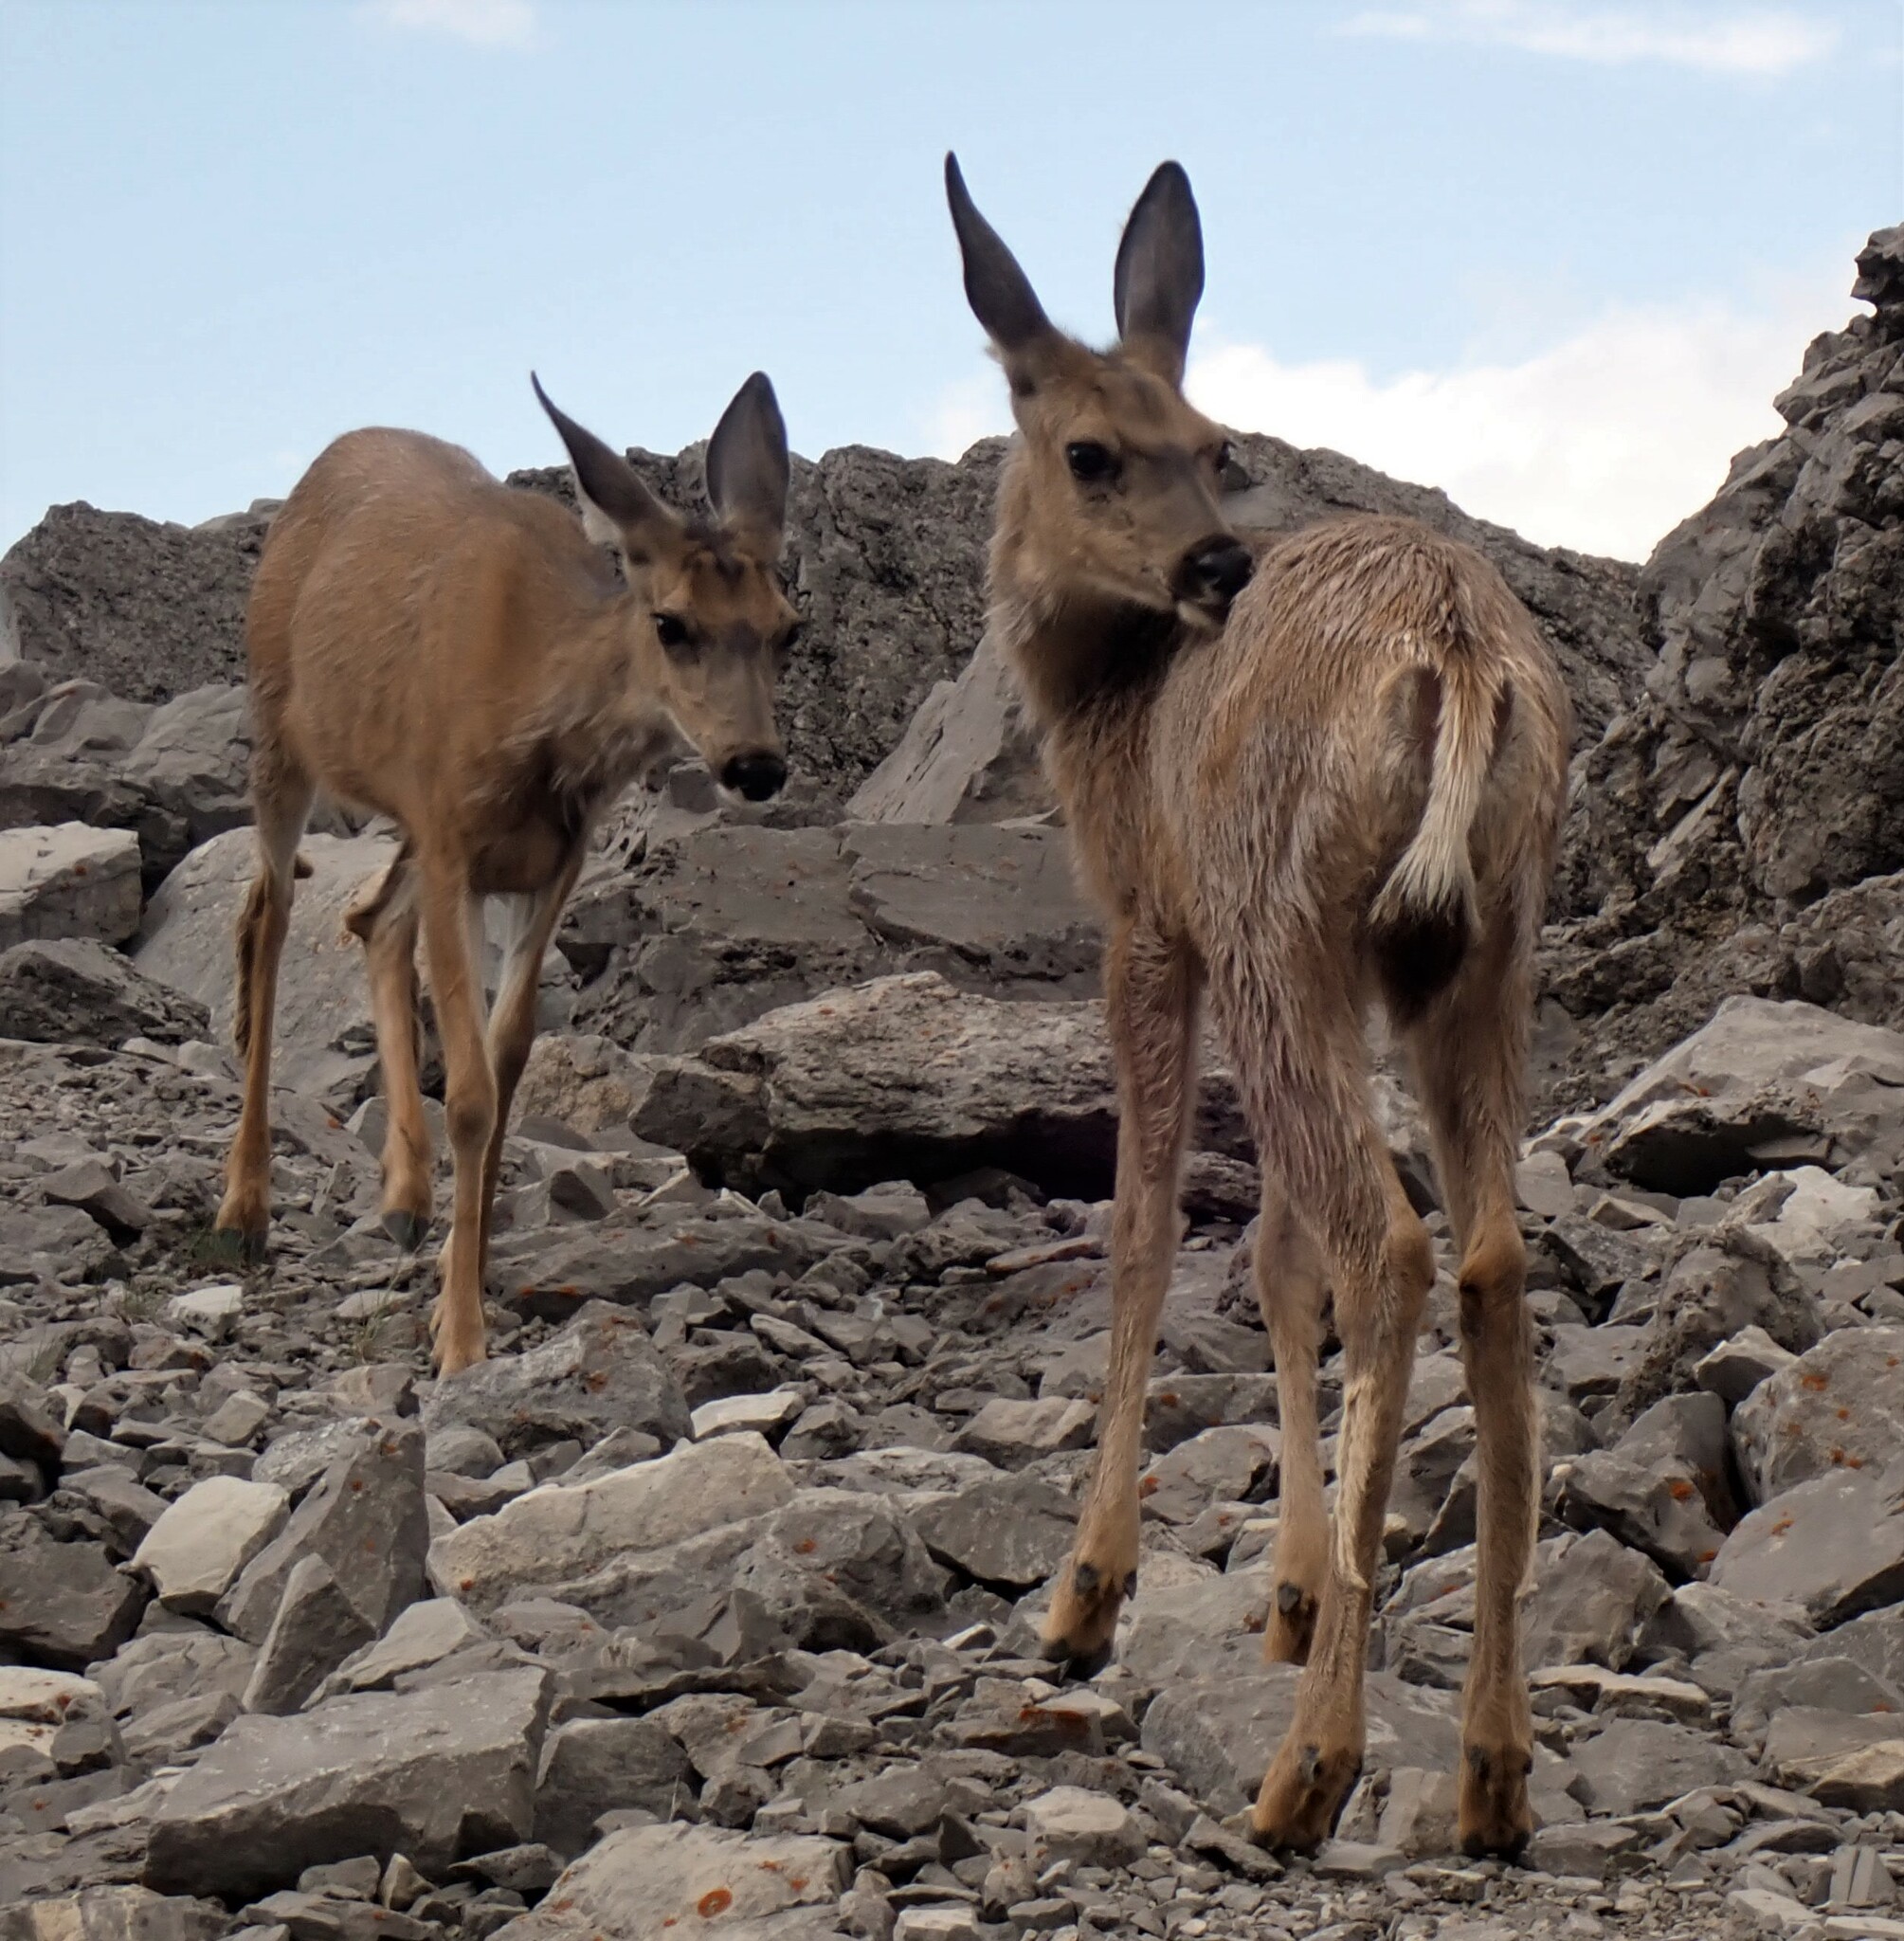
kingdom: Animalia
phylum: Chordata
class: Mammalia
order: Artiodactyla
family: Cervidae
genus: Odocoileus
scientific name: Odocoileus hemionus
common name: Mule deer
